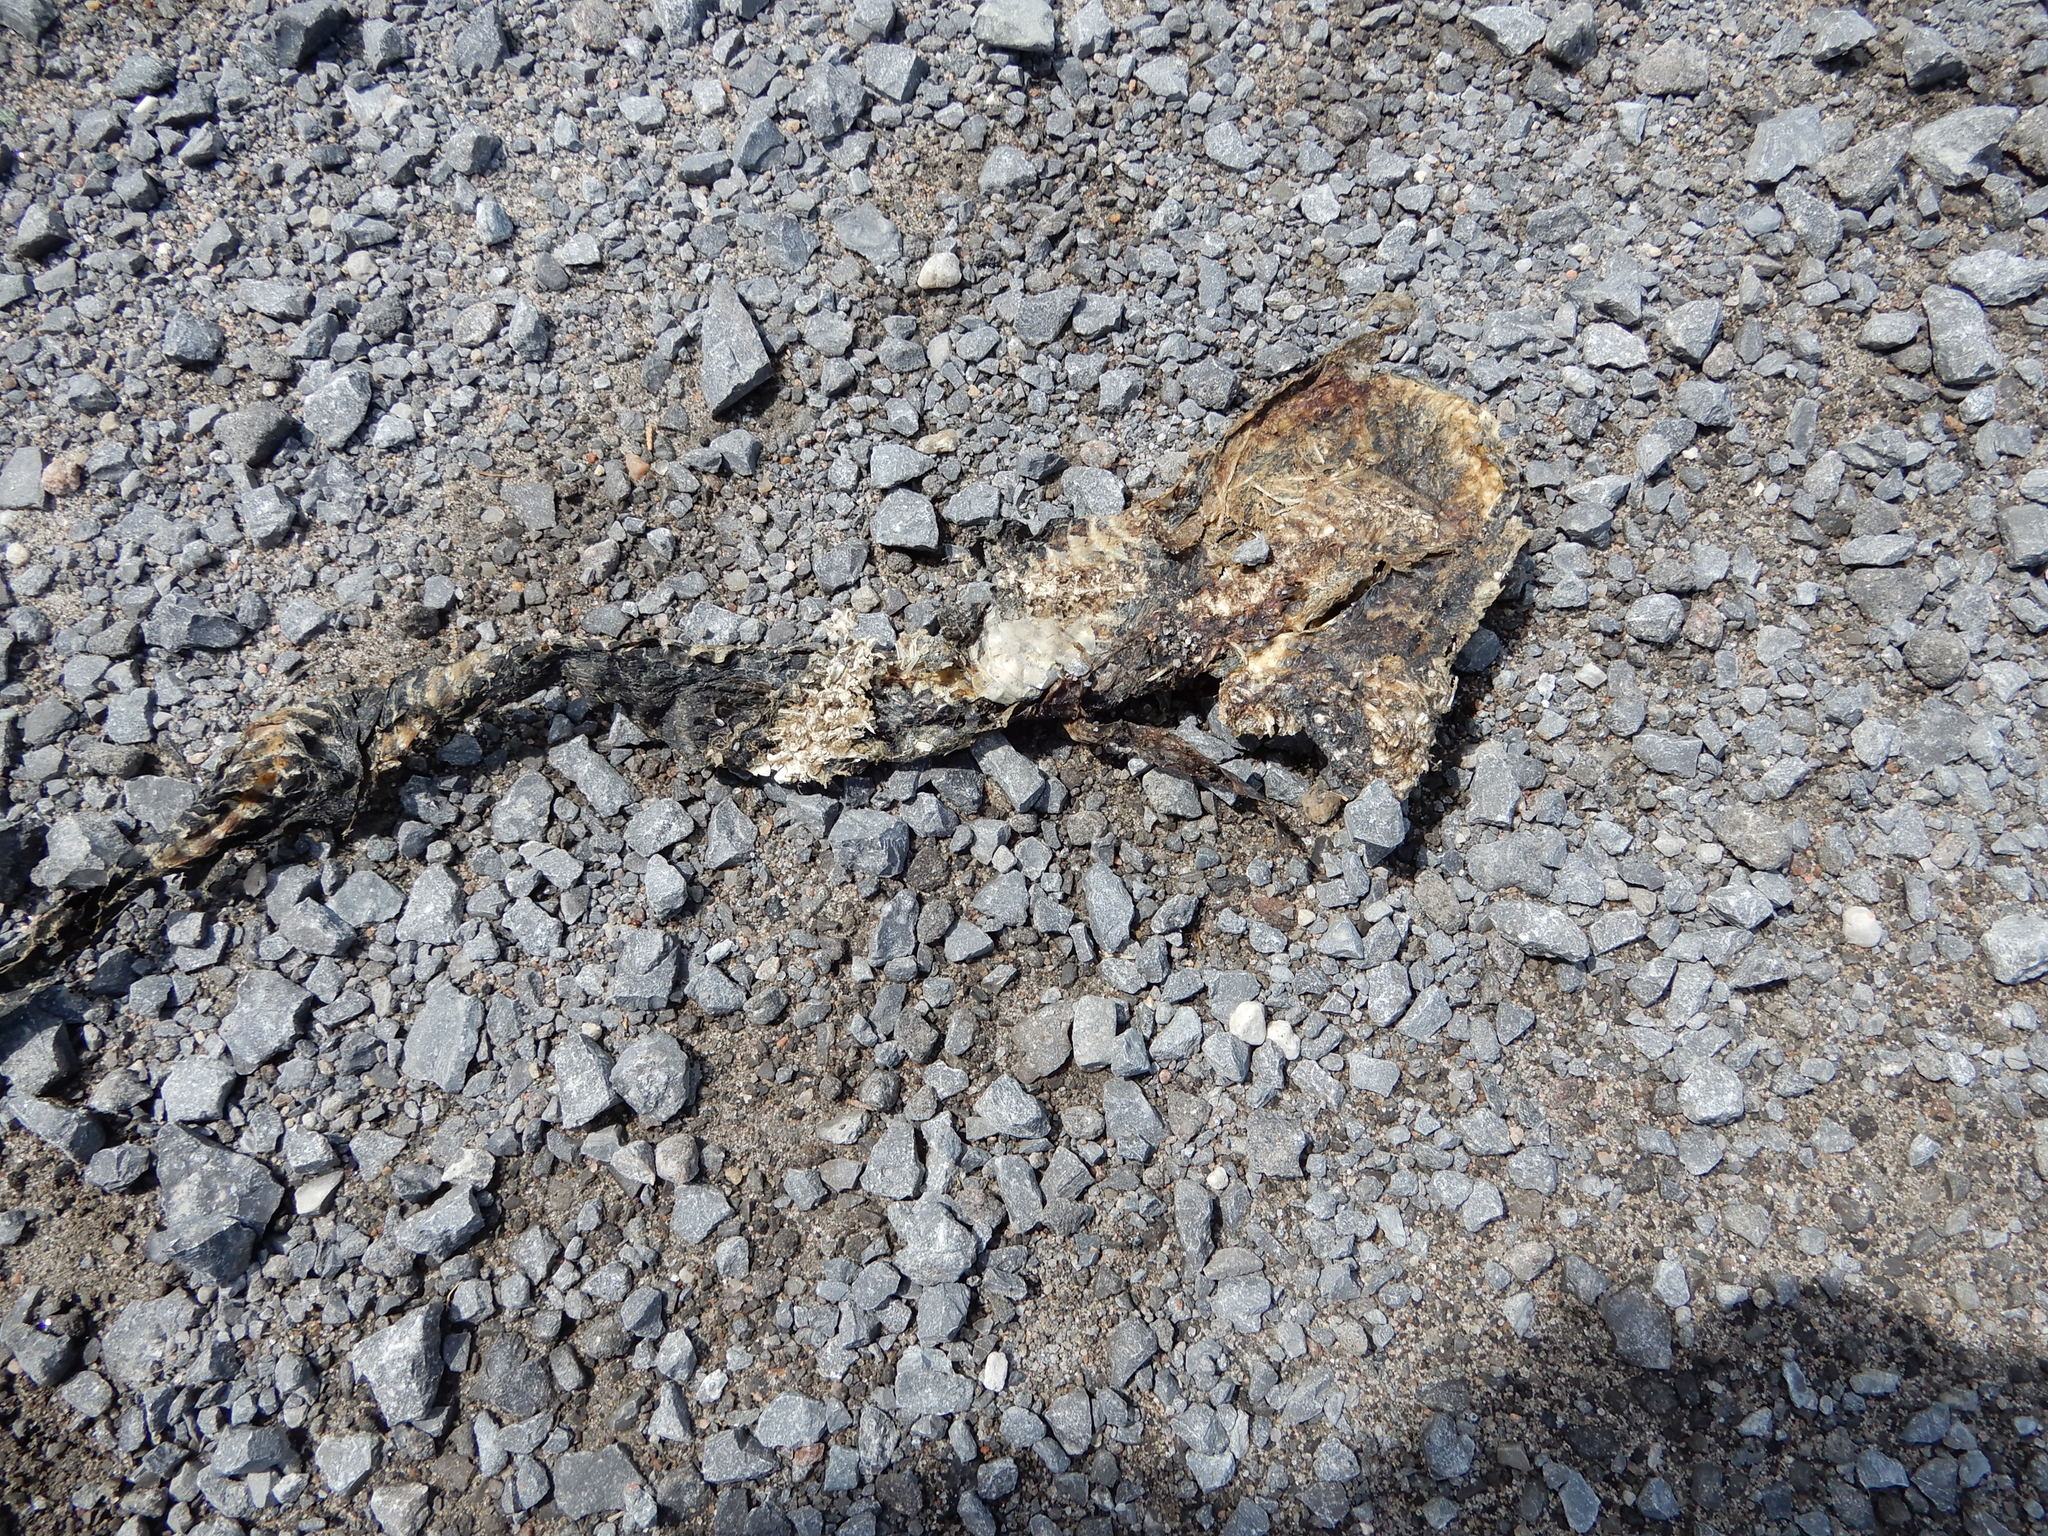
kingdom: Animalia
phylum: Chordata
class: Squamata
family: Colubridae
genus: Nerodia
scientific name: Nerodia sipedon
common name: Northern water snake
